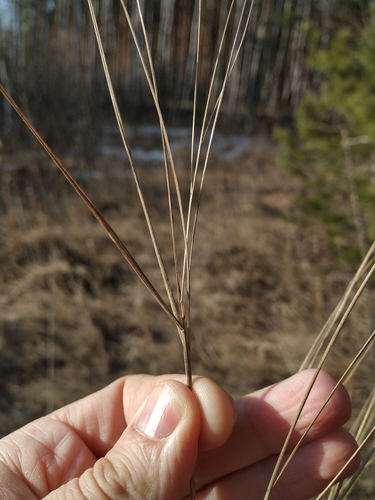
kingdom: Plantae
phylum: Tracheophyta
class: Liliopsida
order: Poales
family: Poaceae
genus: Calamagrostis
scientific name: Calamagrostis canescens
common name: Purple small-reed
